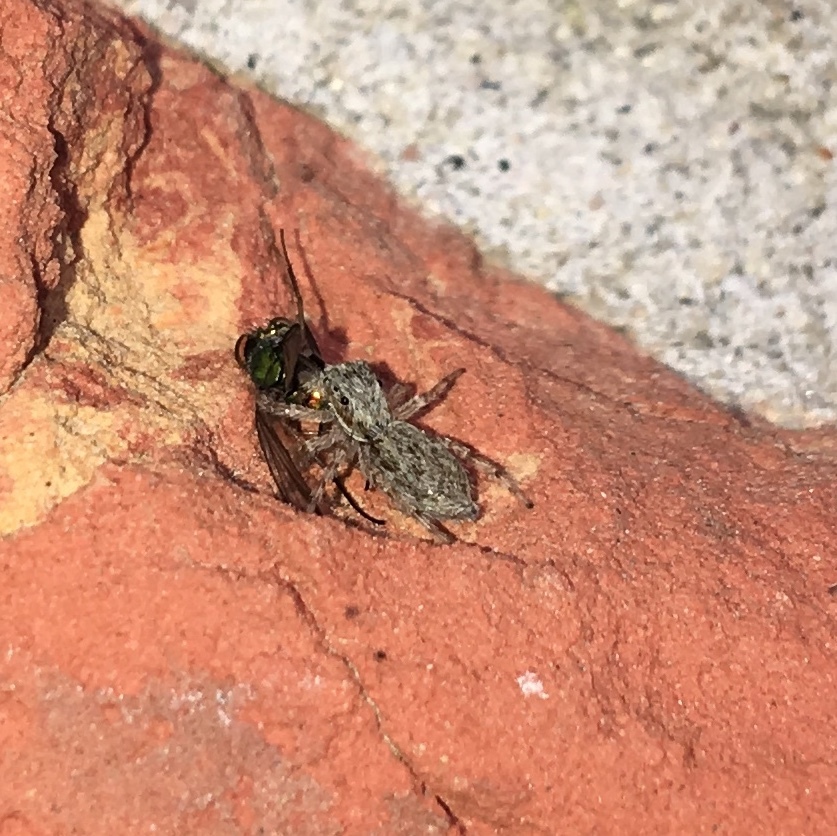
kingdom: Animalia
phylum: Arthropoda
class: Arachnida
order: Araneae
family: Salticidae
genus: Menemerus
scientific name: Menemerus bivittatus
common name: Gray wall jumper
